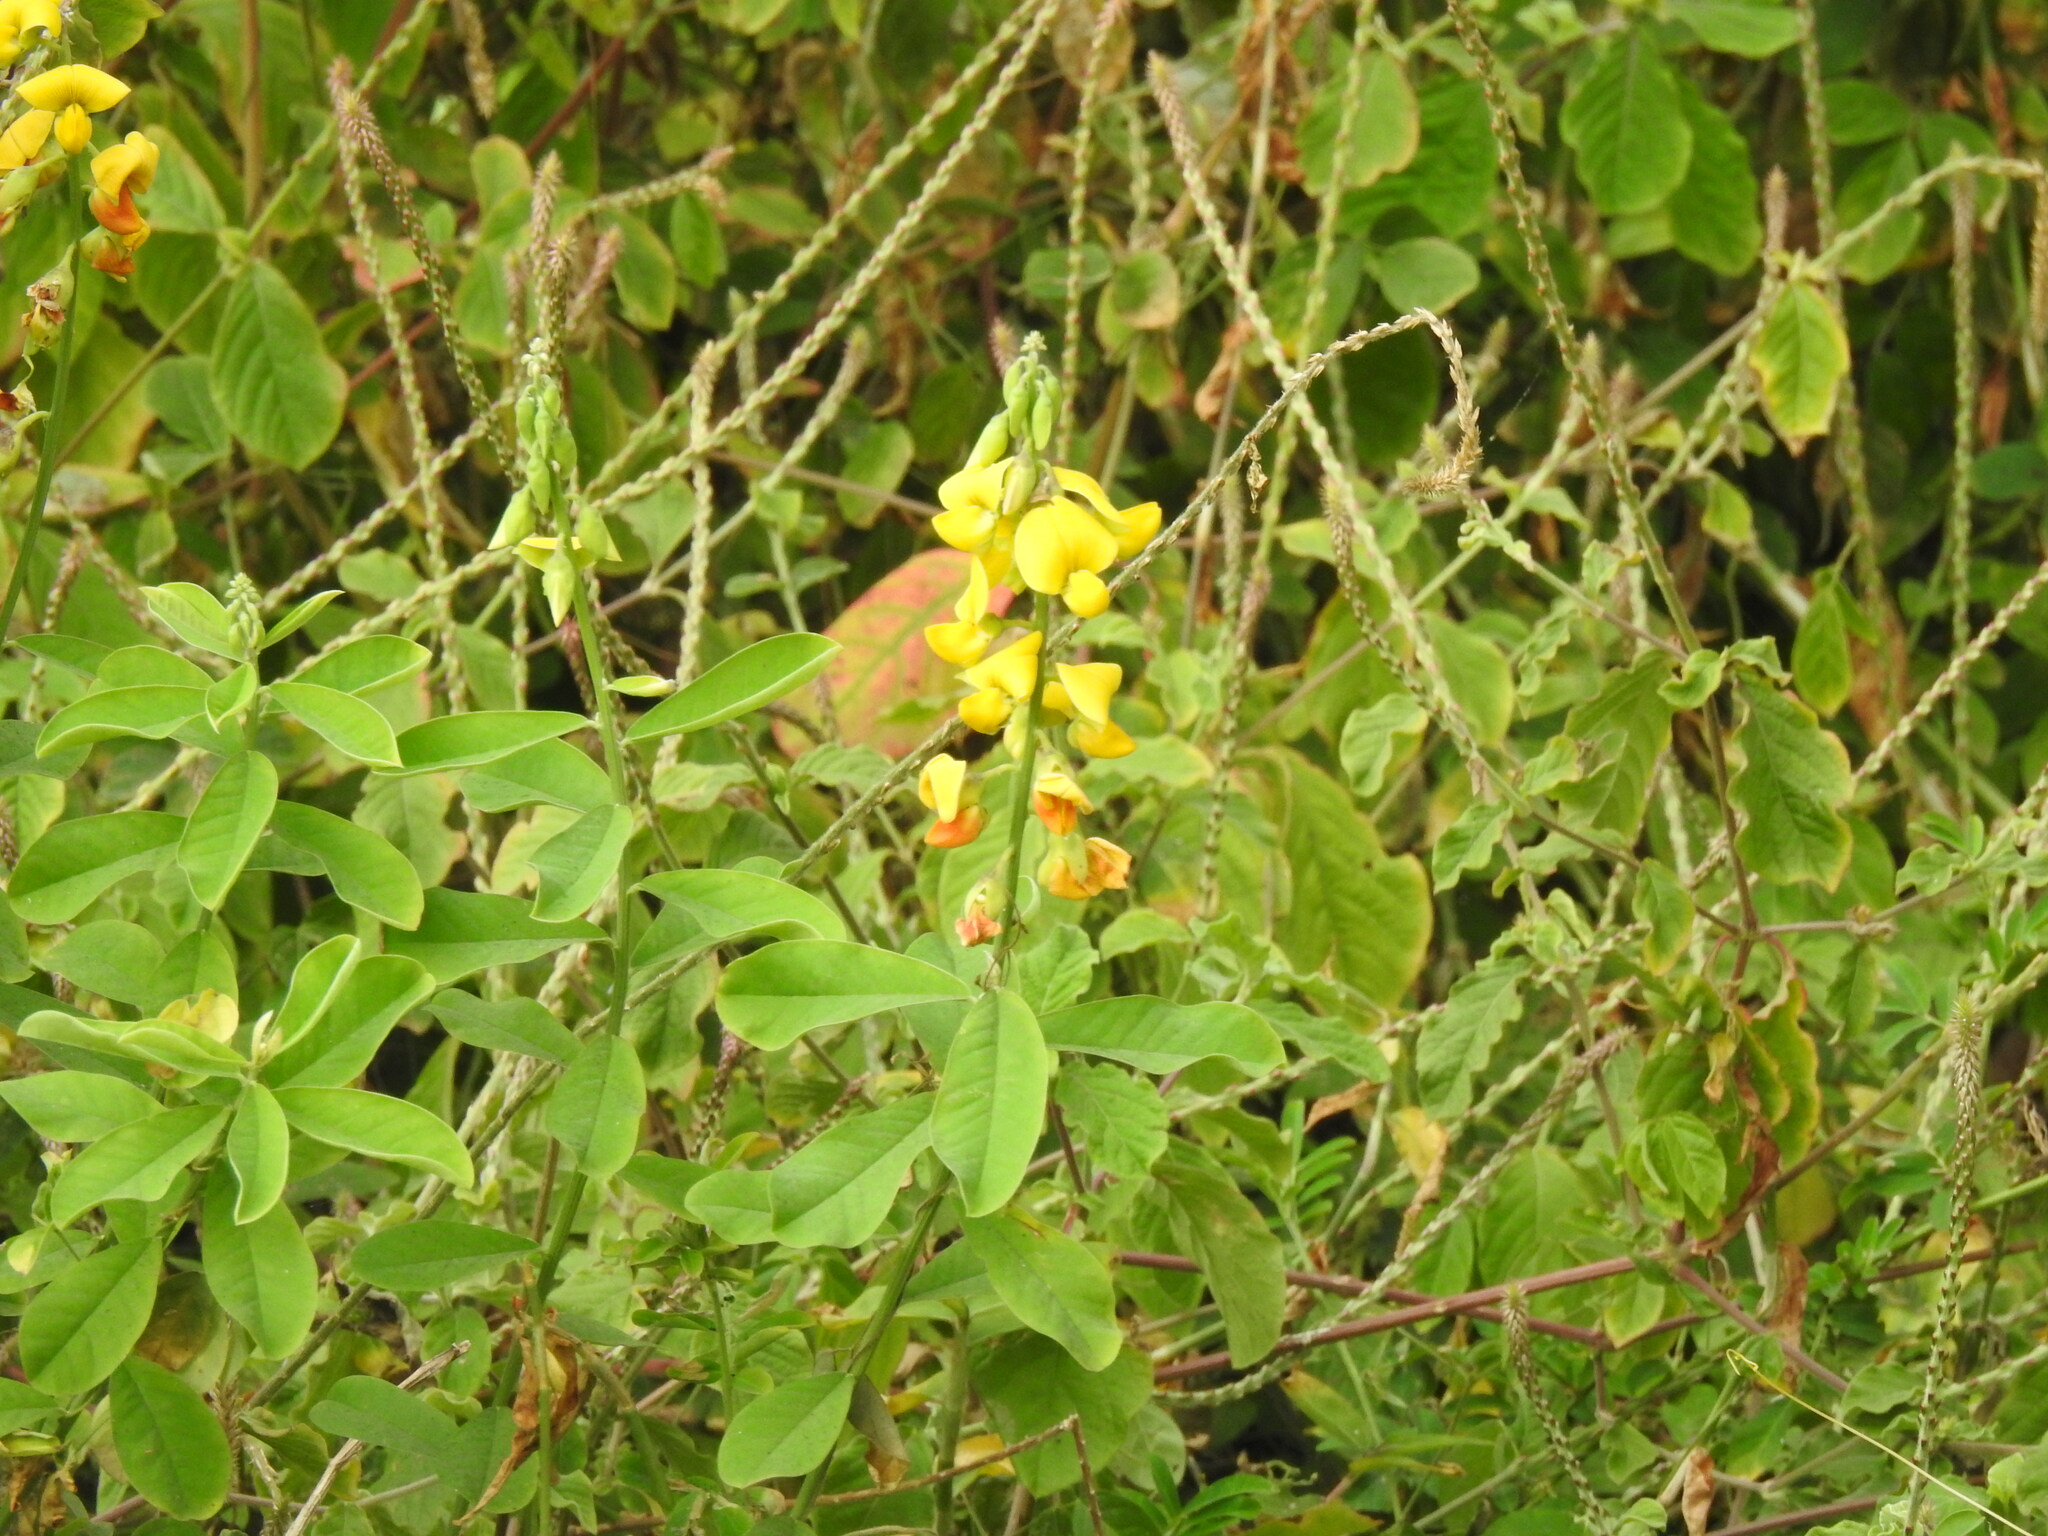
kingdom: Plantae
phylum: Tracheophyta
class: Magnoliopsida
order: Fabales
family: Fabaceae
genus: Crotalaria
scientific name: Crotalaria retusa
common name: Rattleweed
